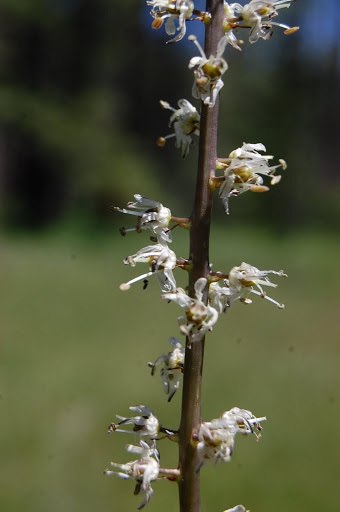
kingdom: Plantae
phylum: Tracheophyta
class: Liliopsida
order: Asparagales
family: Asparagaceae
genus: Hastingsia
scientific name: Hastingsia alba
